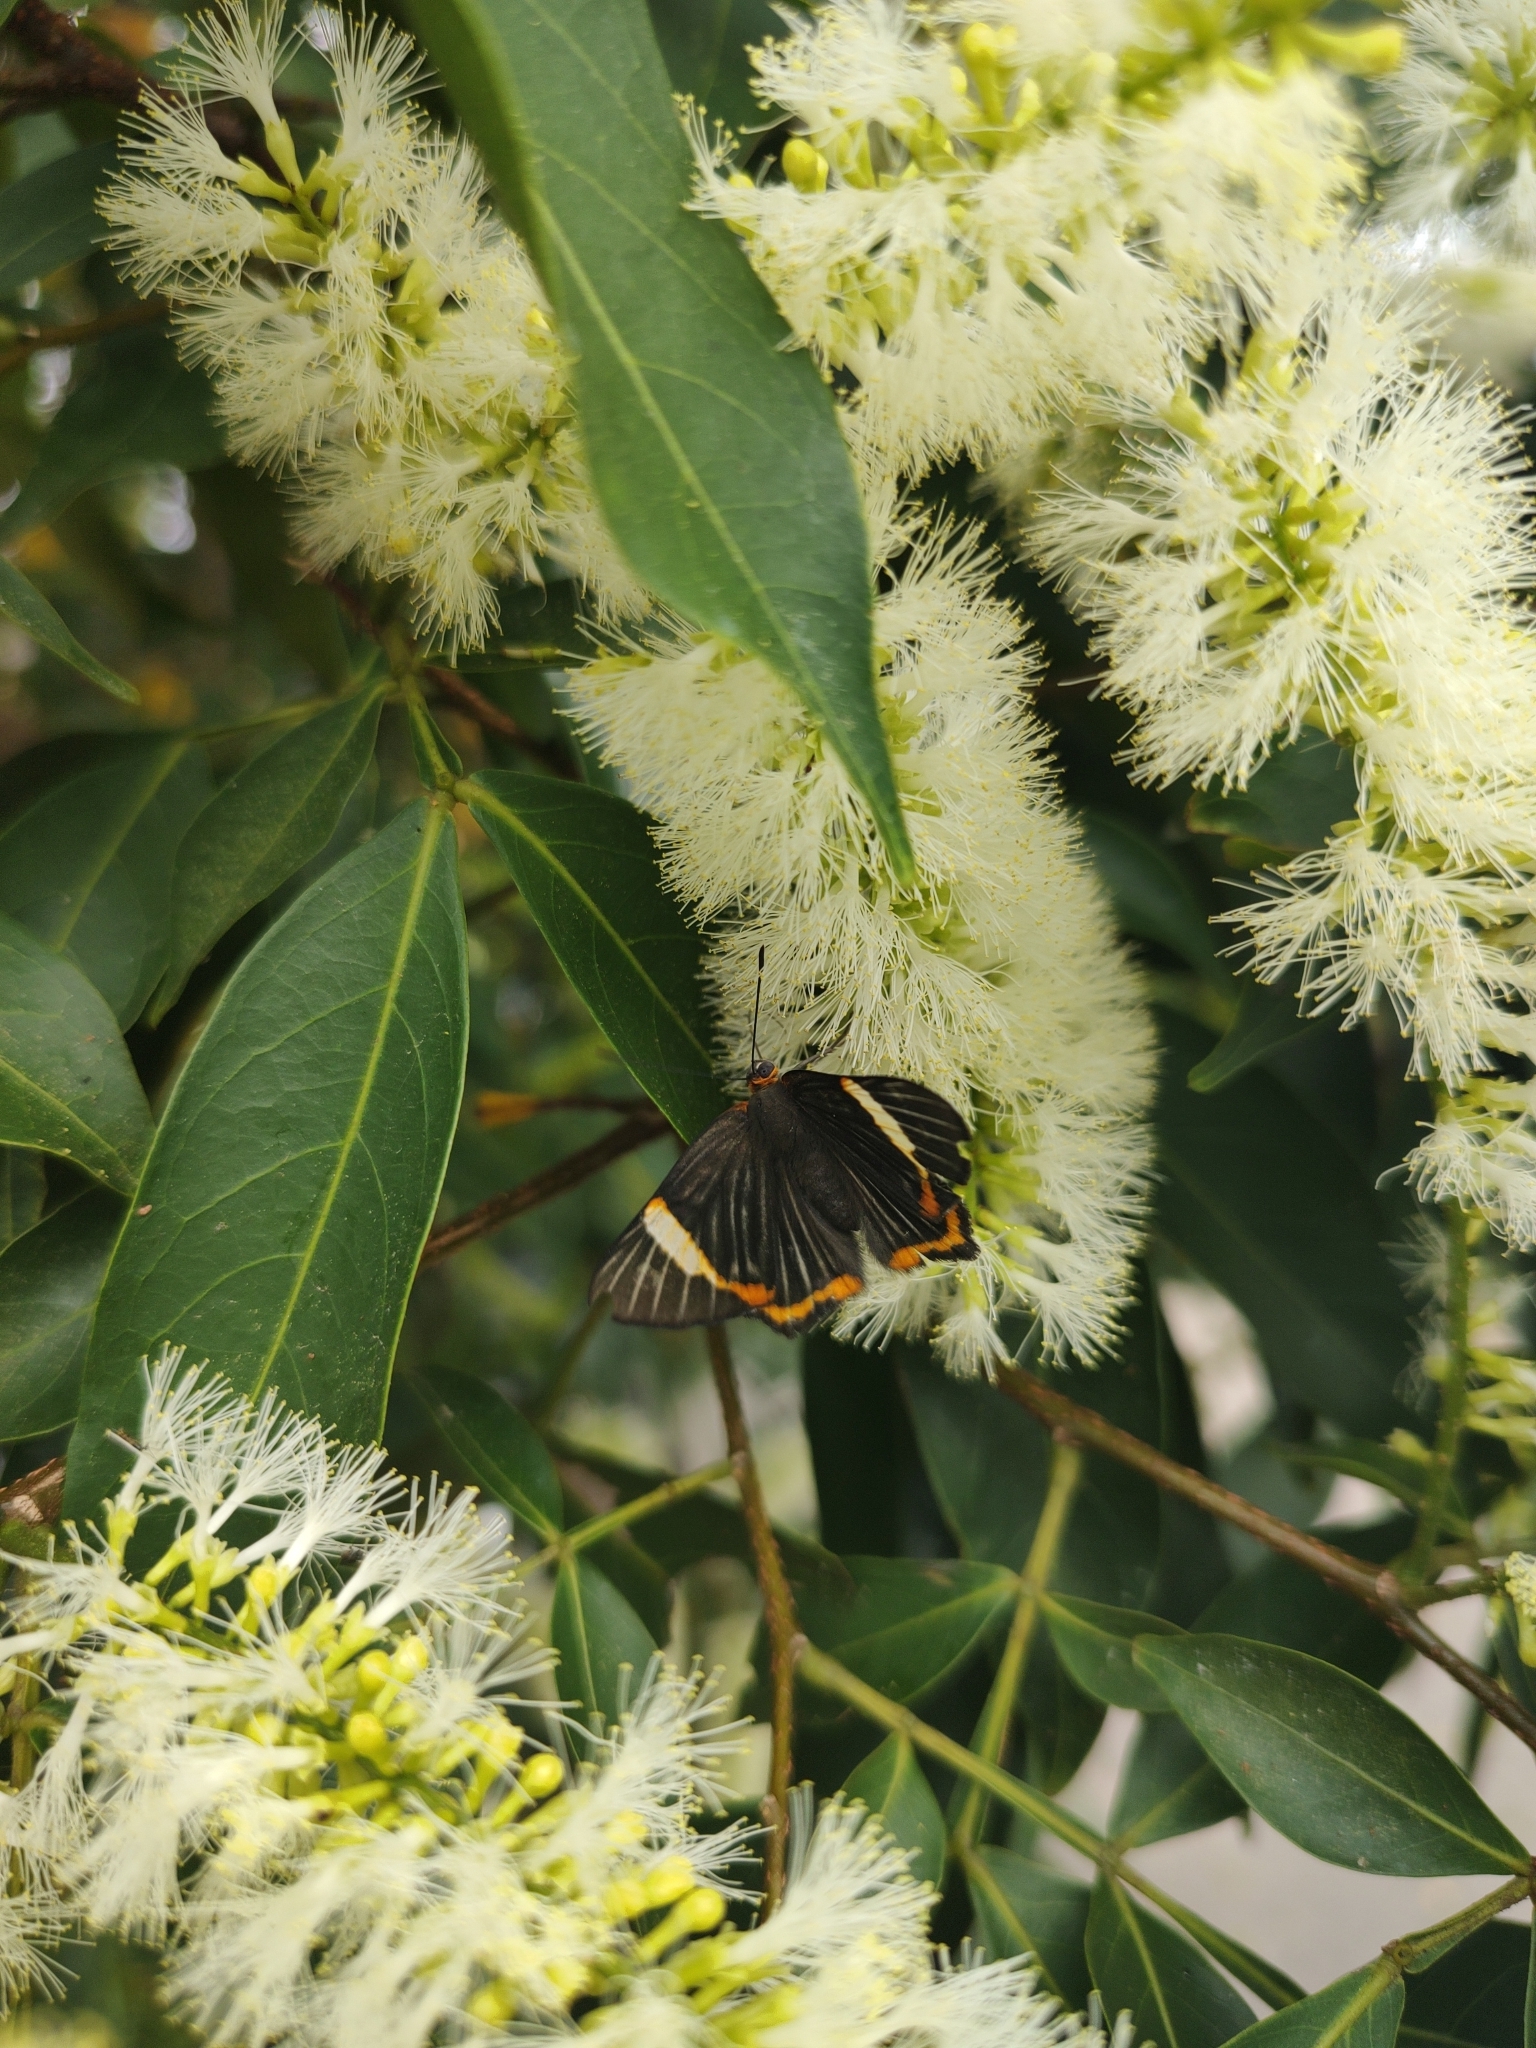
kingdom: Animalia
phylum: Arthropoda
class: Insecta
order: Lepidoptera
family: Riodinidae
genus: Riodina
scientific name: Riodina lycisca
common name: Lycisca metalmark
